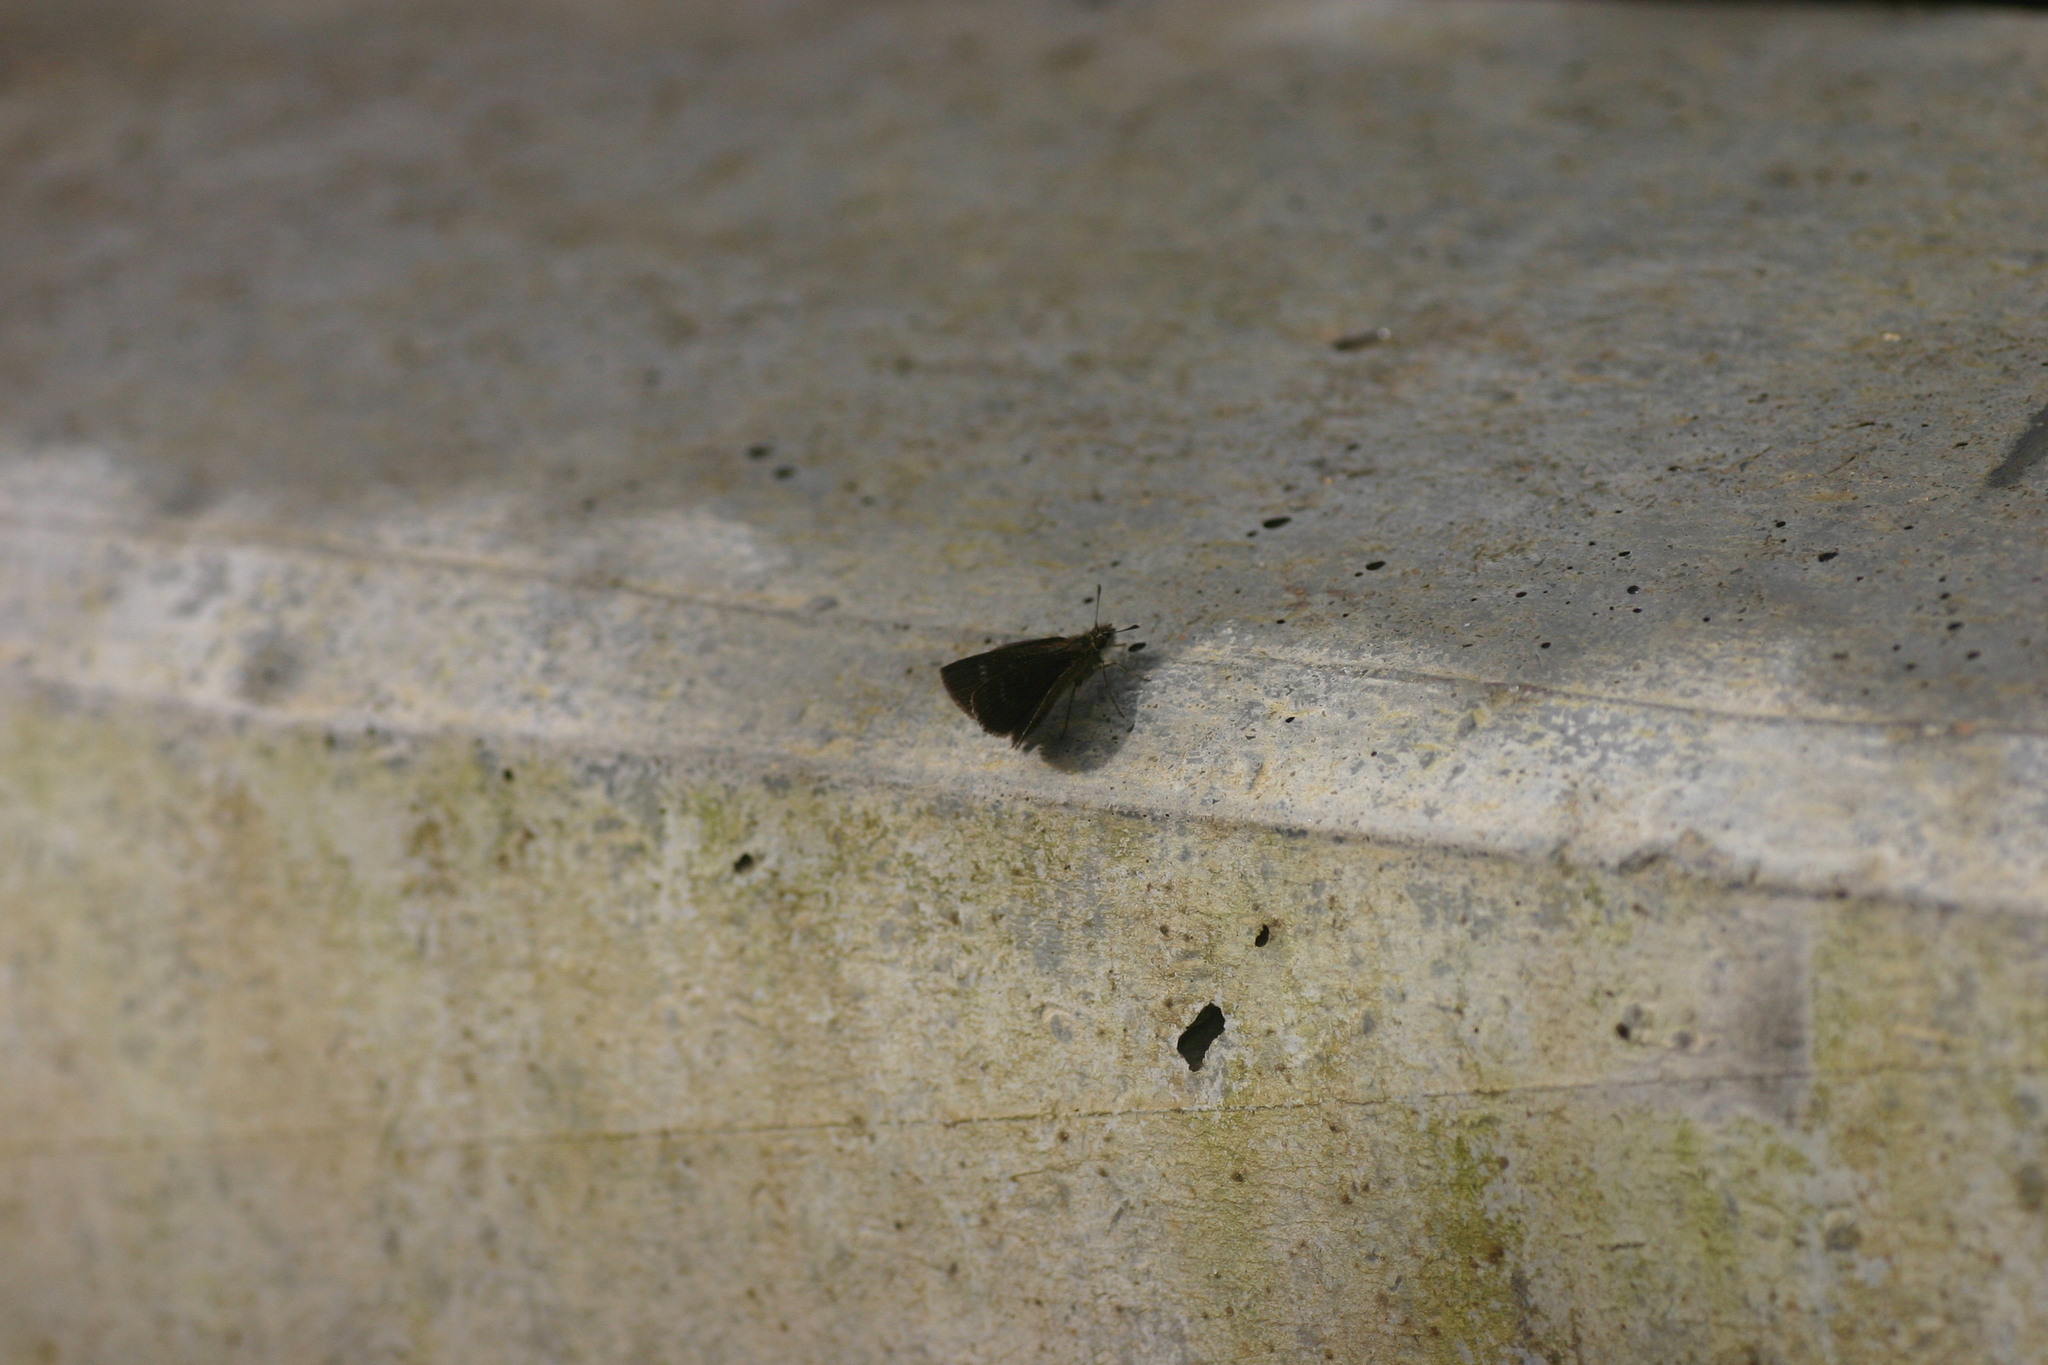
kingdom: Animalia
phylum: Arthropoda
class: Insecta
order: Lepidoptera
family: Hesperiidae
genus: Aeromachus
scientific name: Aeromachus pygmaeus
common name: Pygmy scrub hopper
